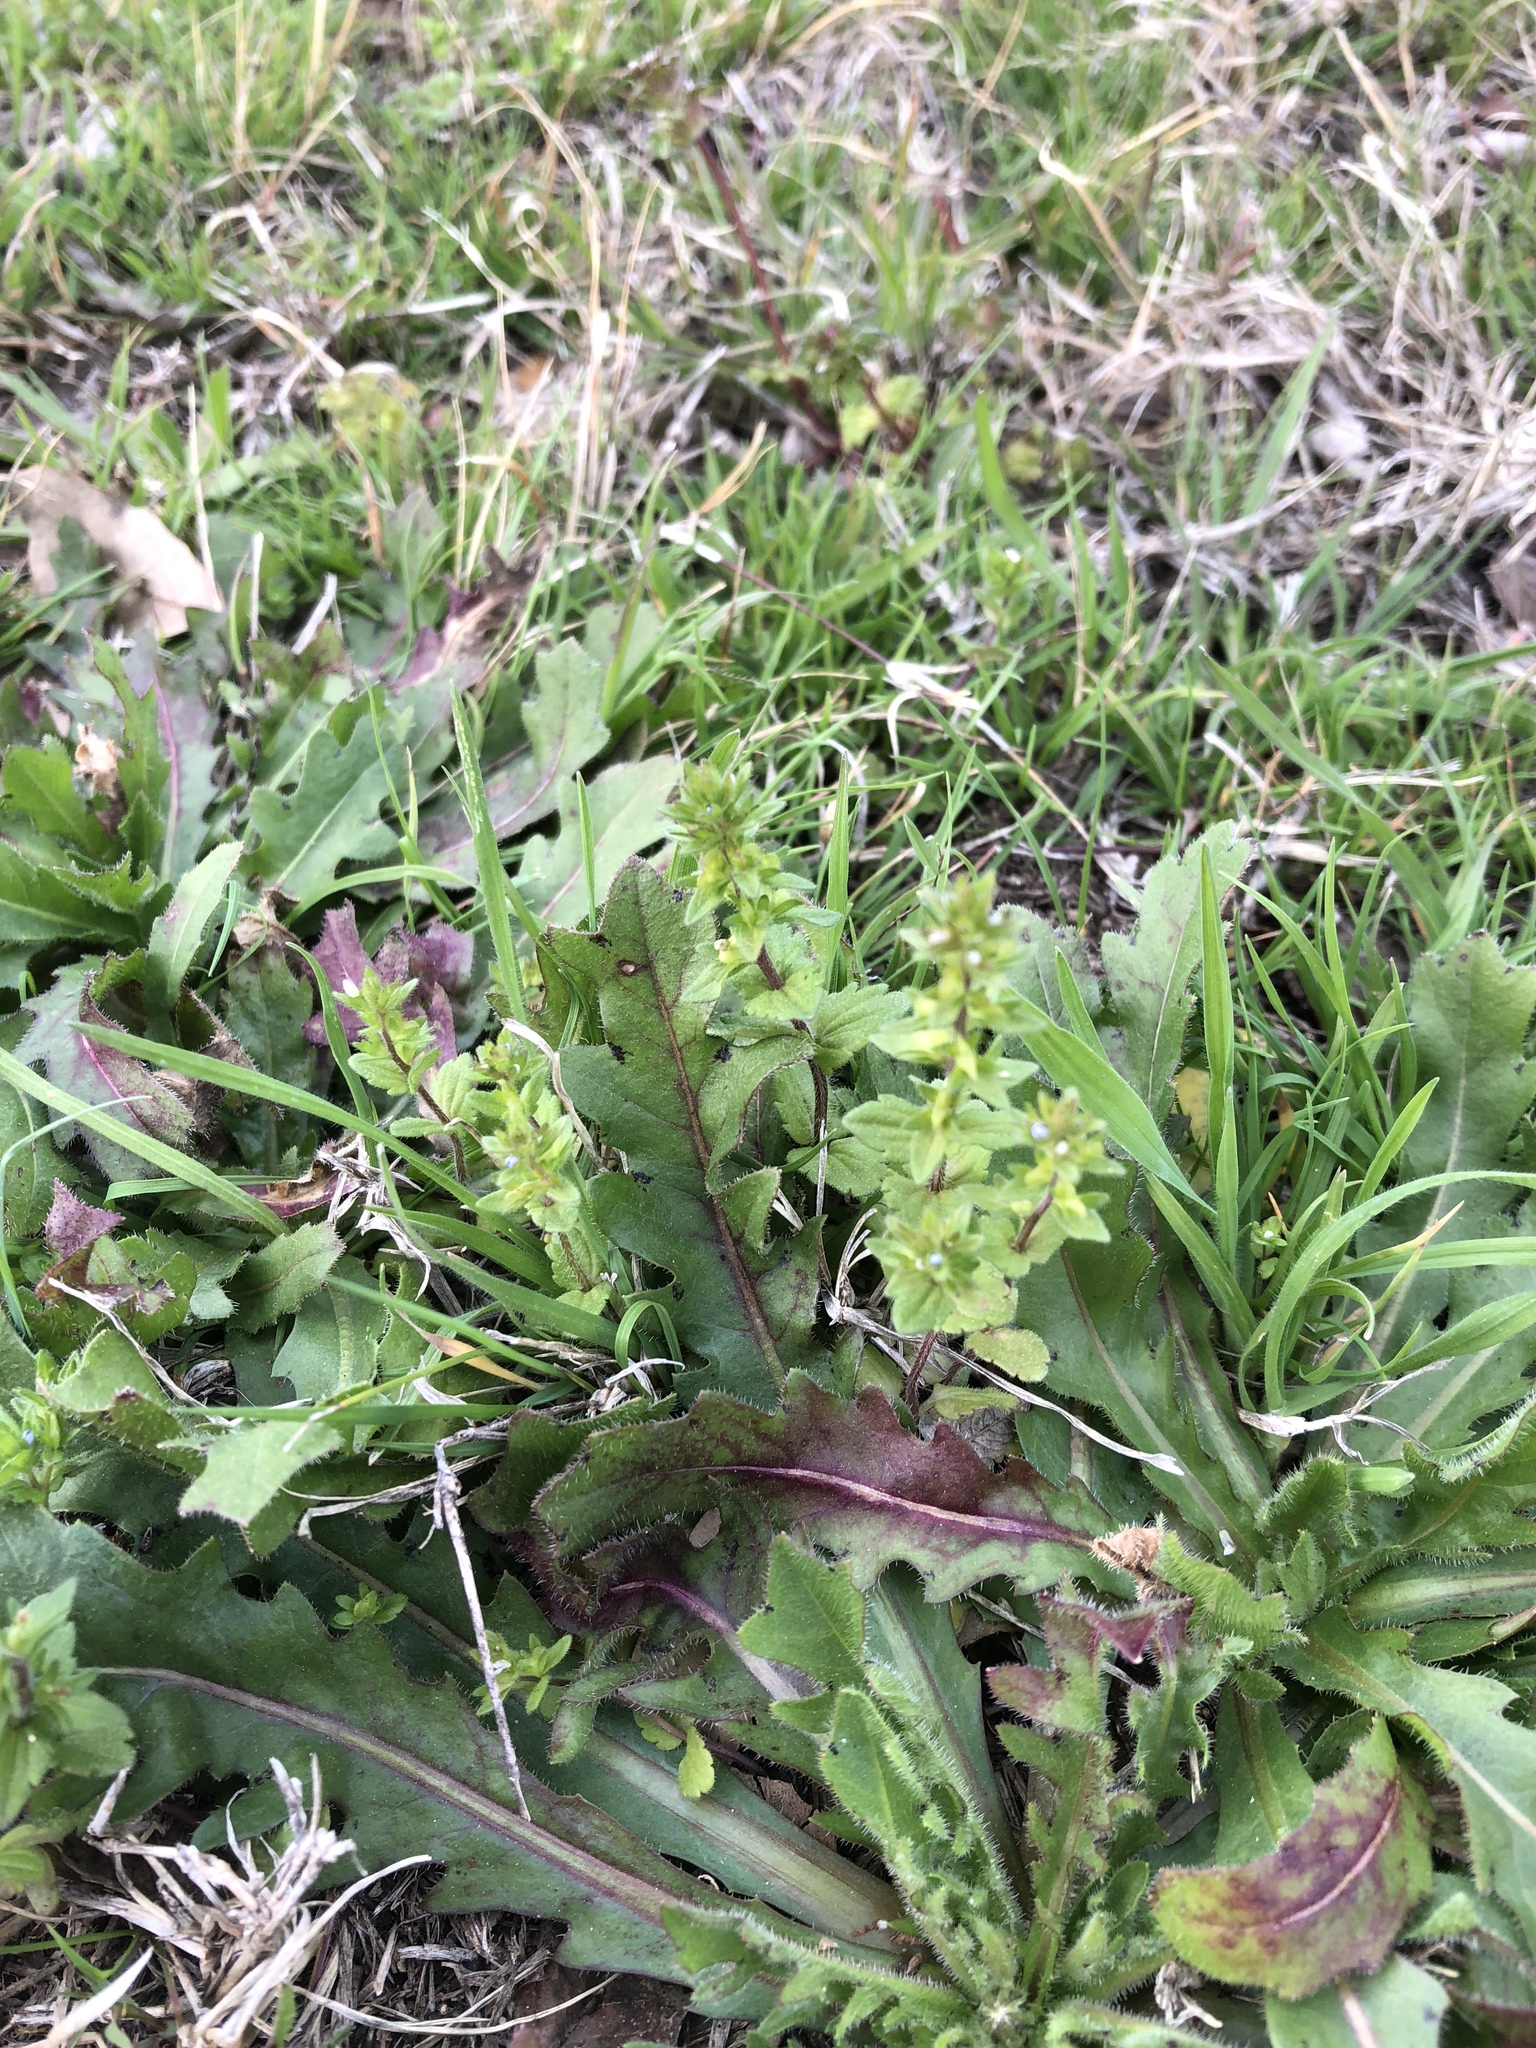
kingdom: Plantae
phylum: Tracheophyta
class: Magnoliopsida
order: Lamiales
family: Plantaginaceae
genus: Veronica
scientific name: Veronica arvensis
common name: Corn speedwell
